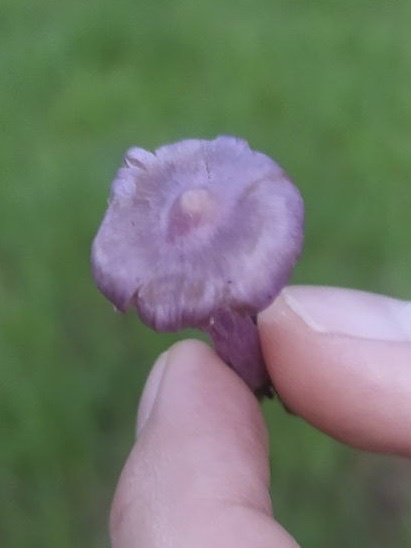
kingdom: Fungi
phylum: Basidiomycota
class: Agaricomycetes
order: Agaricales
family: Inocybaceae
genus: Inocybe
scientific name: Inocybe geophylla
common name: White fibrecap
